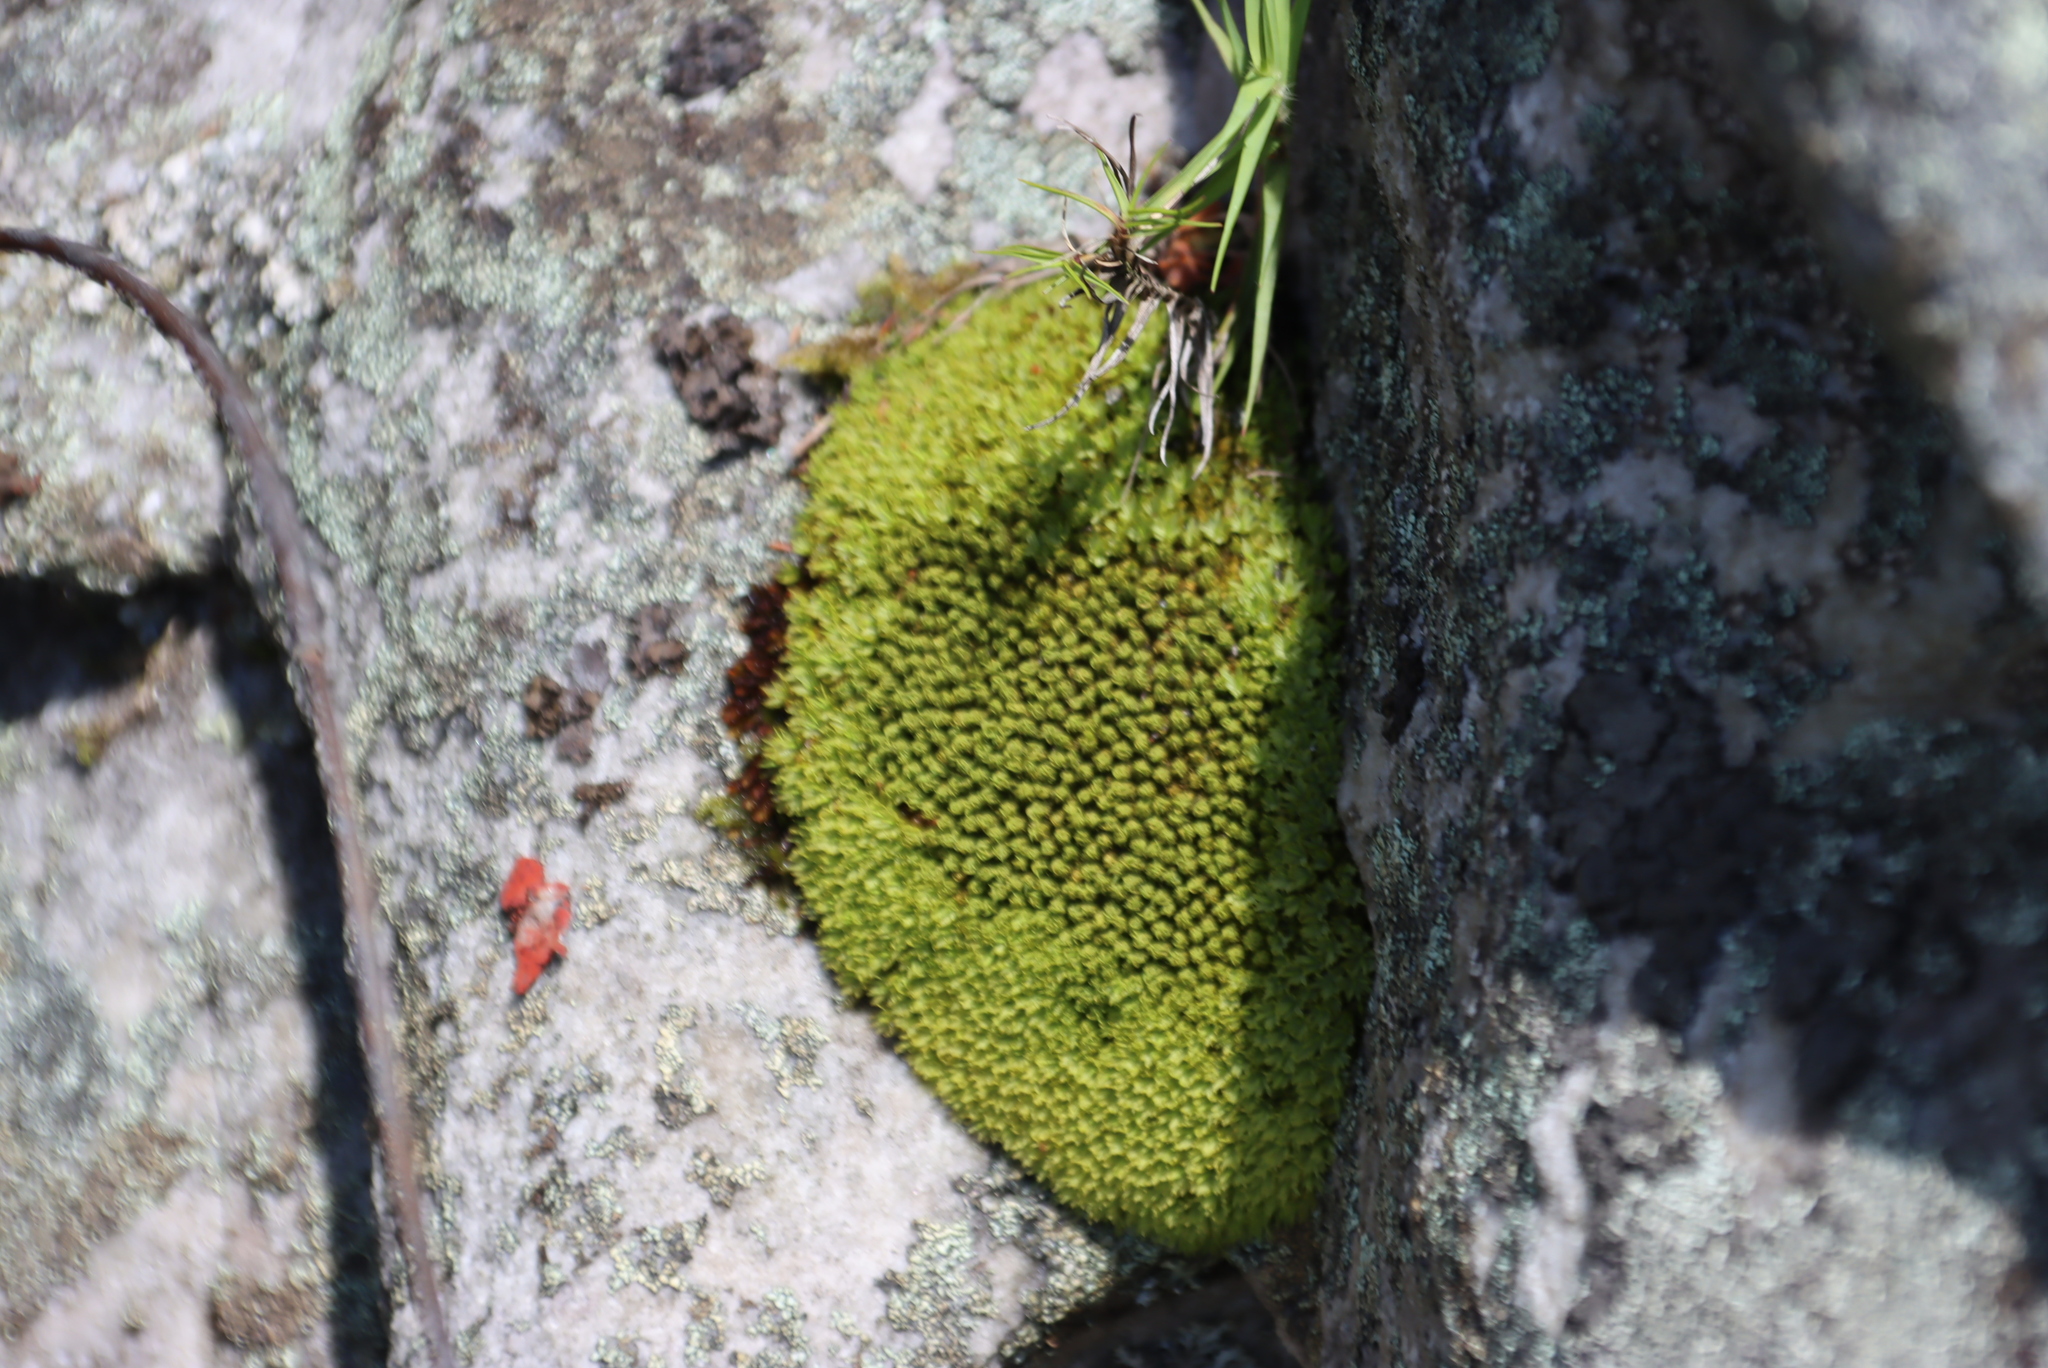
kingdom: Plantae
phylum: Bryophyta
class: Bryopsida
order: Dicranales
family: Hypodontiaceae
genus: Hypodontium
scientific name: Hypodontium pomiforme
